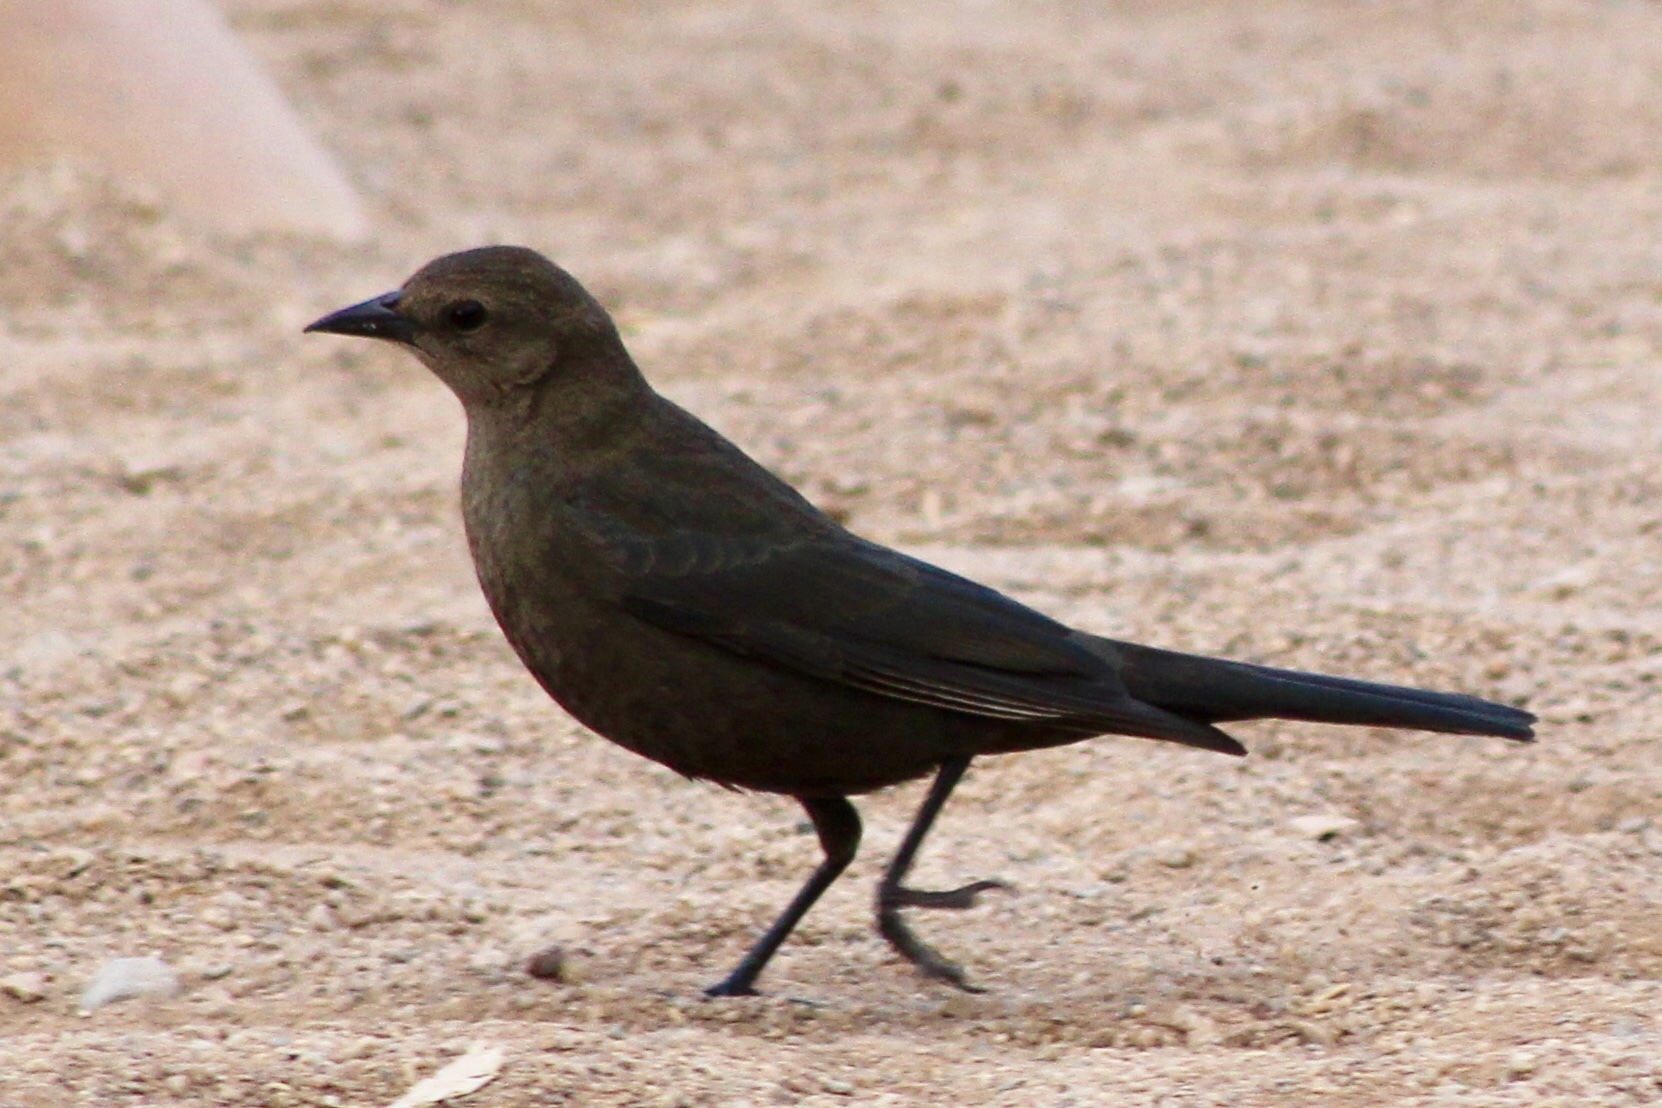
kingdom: Animalia
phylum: Chordata
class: Aves
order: Passeriformes
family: Icteridae
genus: Euphagus
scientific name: Euphagus cyanocephalus
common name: Brewer's blackbird
